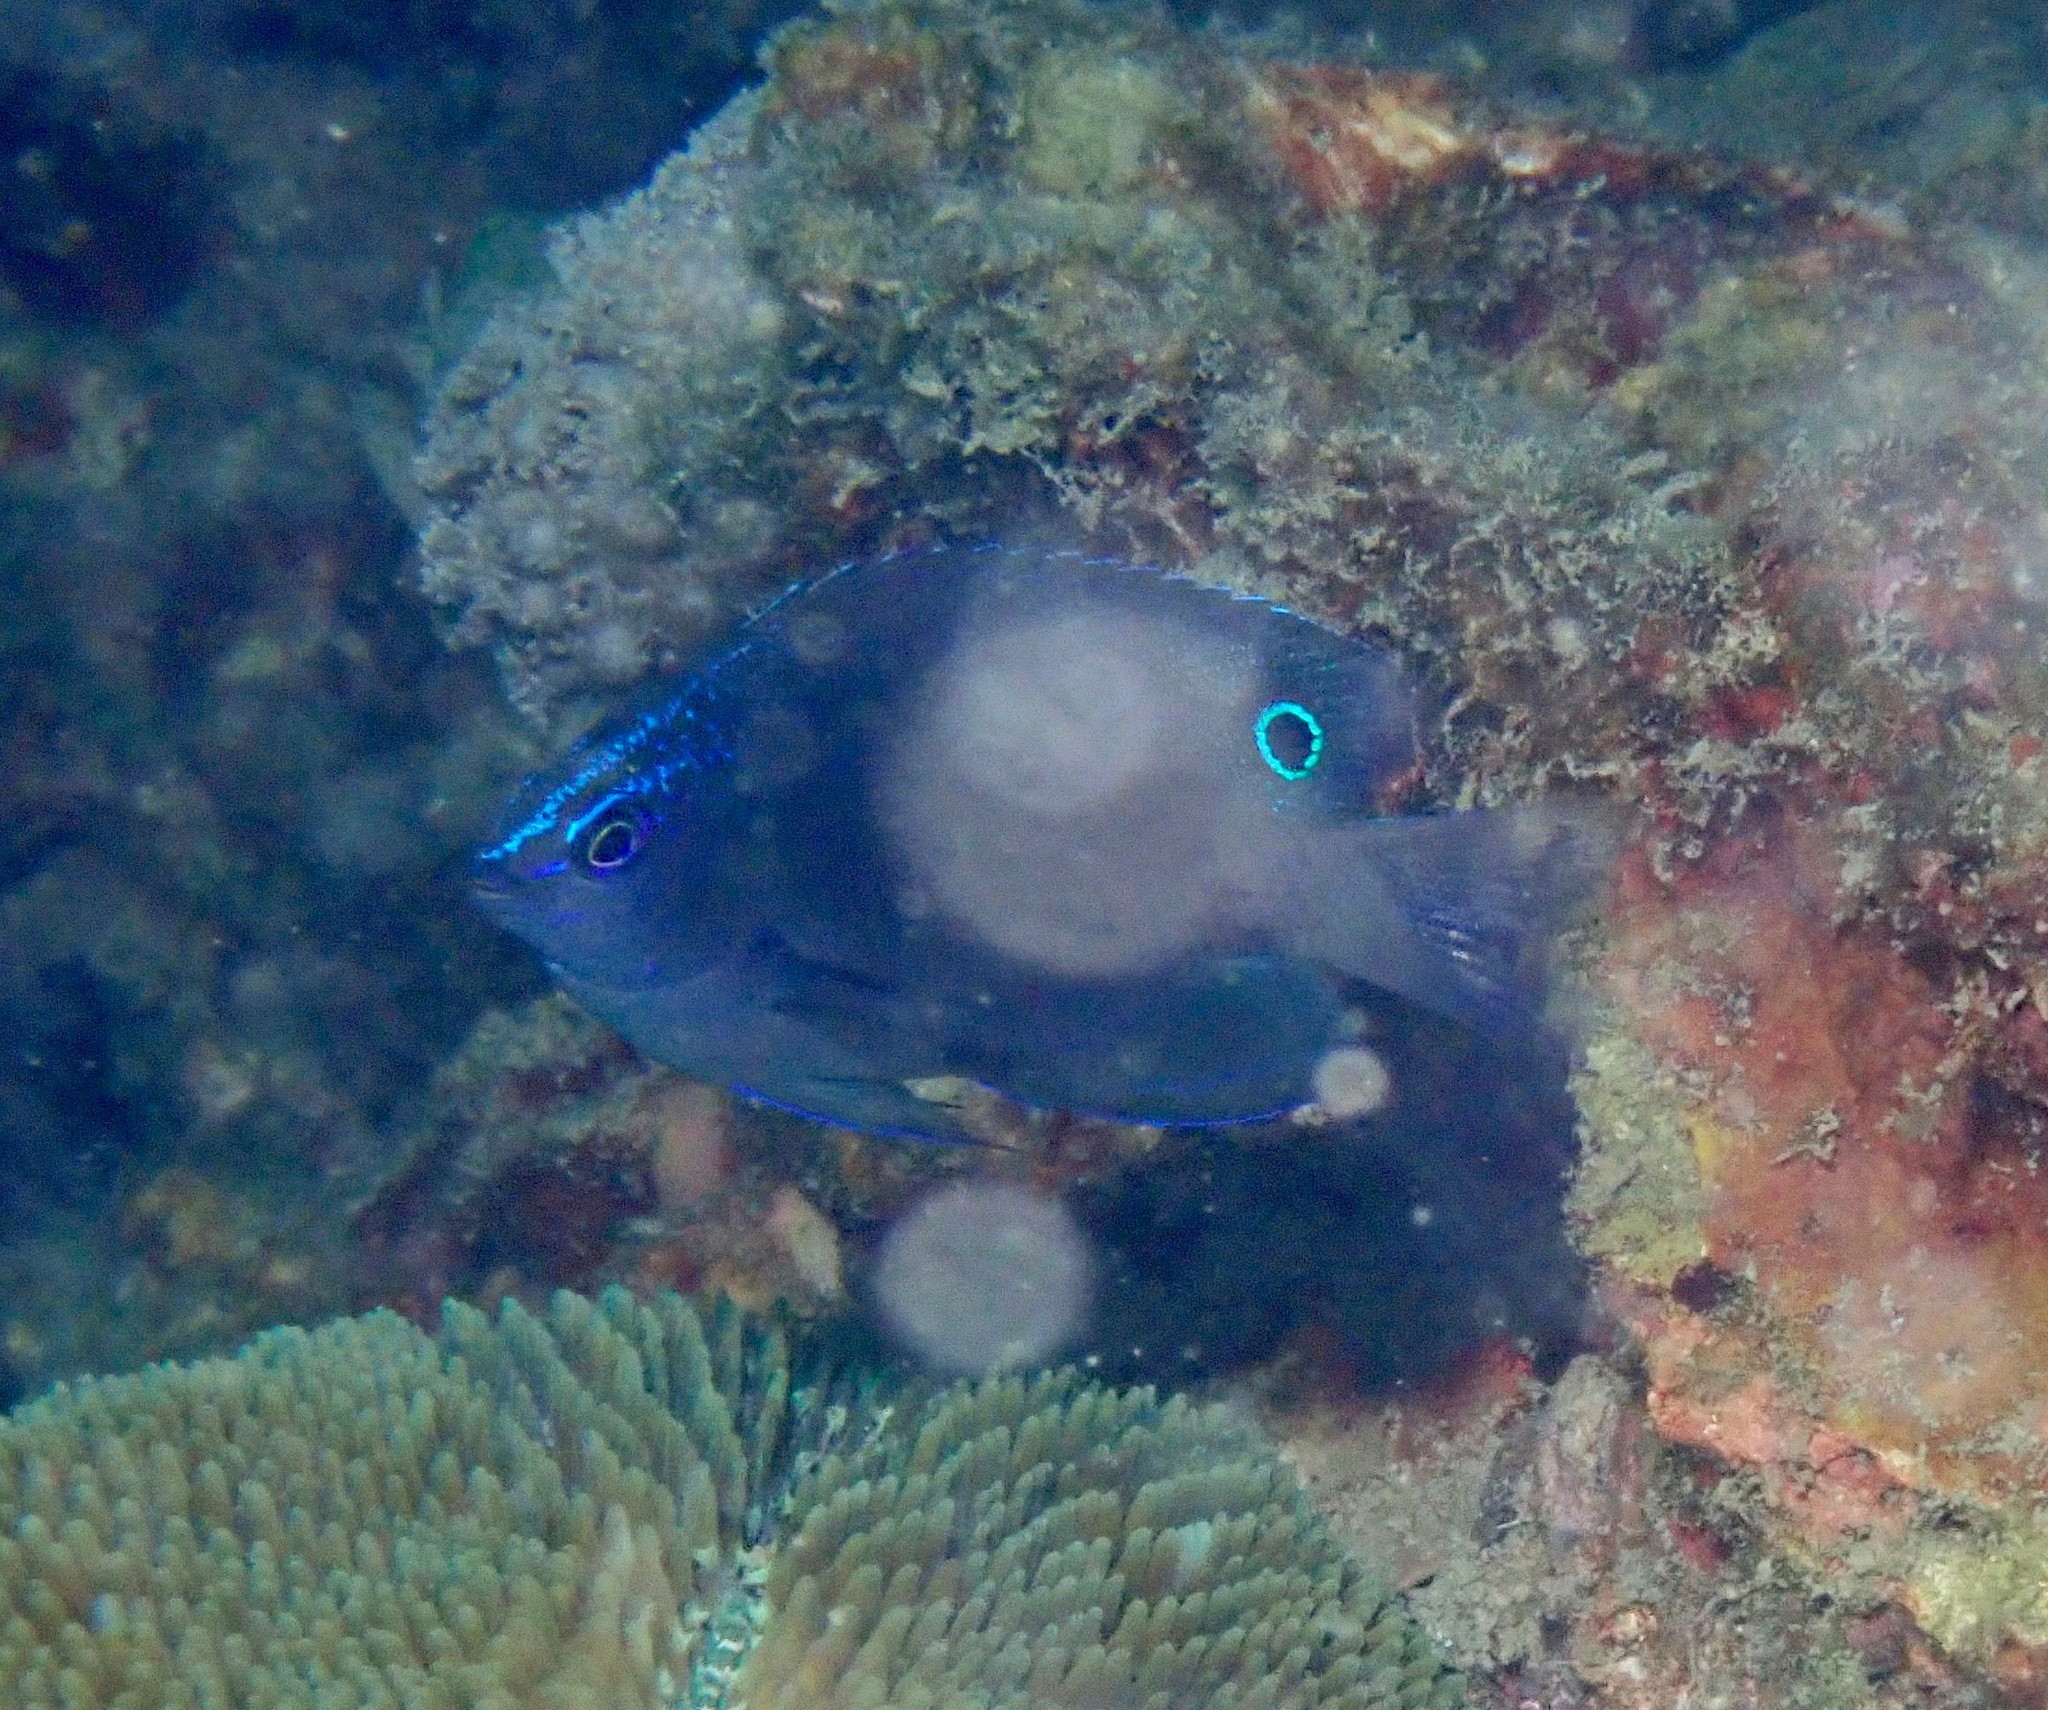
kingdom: Animalia
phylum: Chordata
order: Perciformes
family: Pomacentridae
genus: Pomacentrus
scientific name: Pomacentrus polyspinus
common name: Thai damsel
